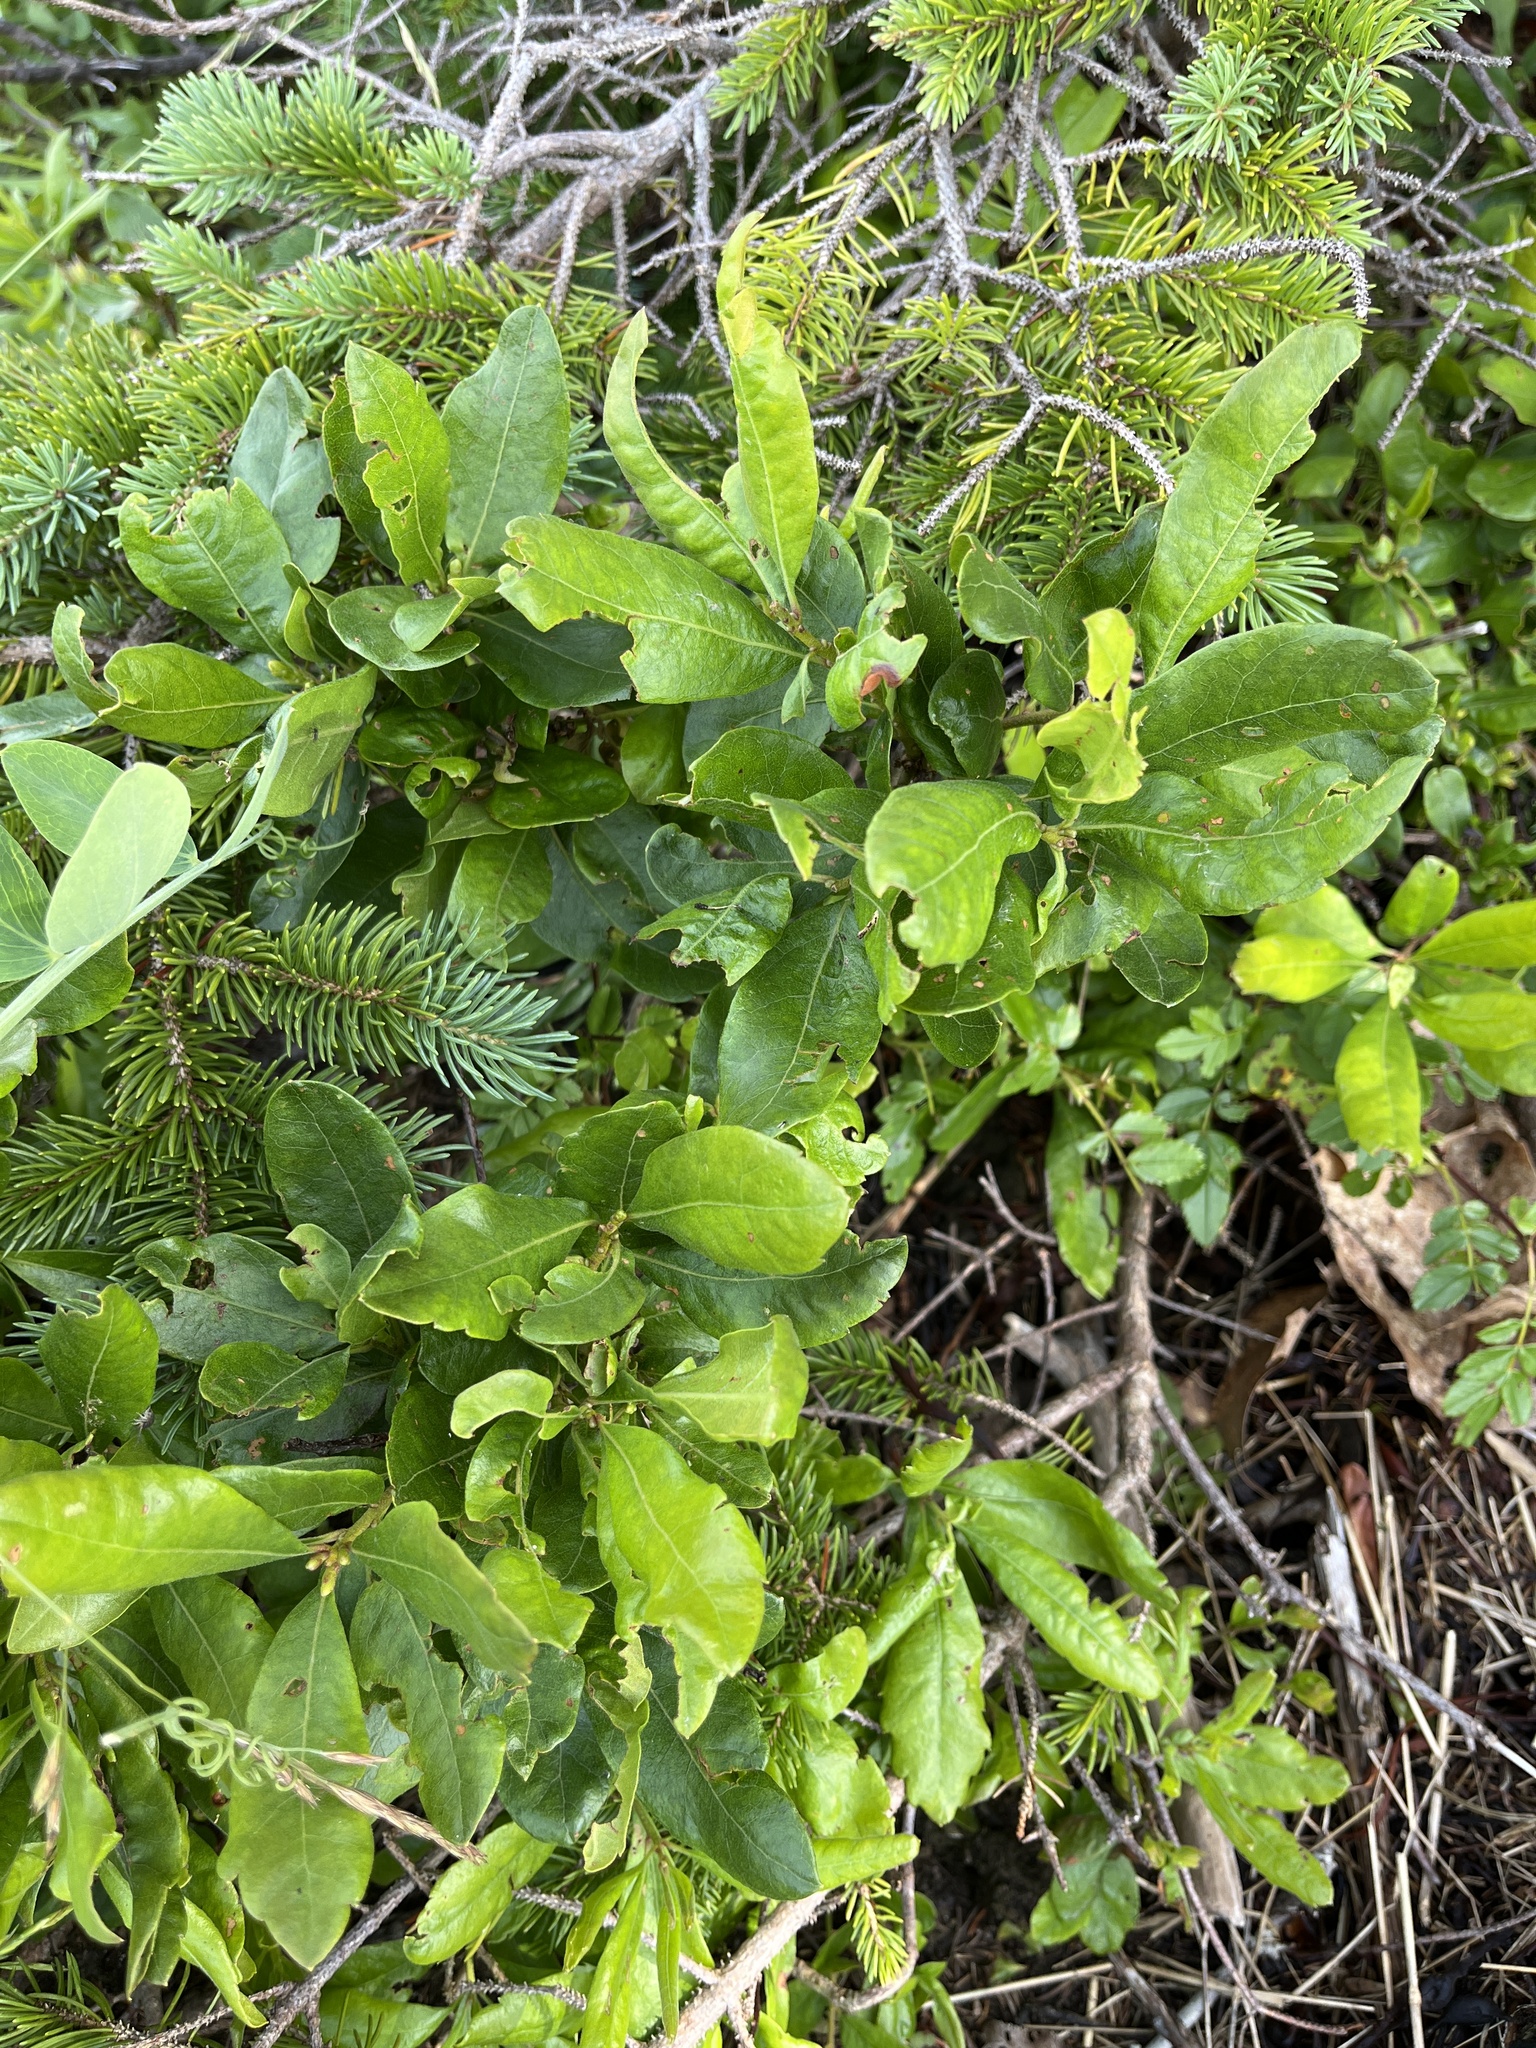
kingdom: Plantae
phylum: Tracheophyta
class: Magnoliopsida
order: Fagales
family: Myricaceae
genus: Morella
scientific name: Morella pensylvanica
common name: Northern bayberry
